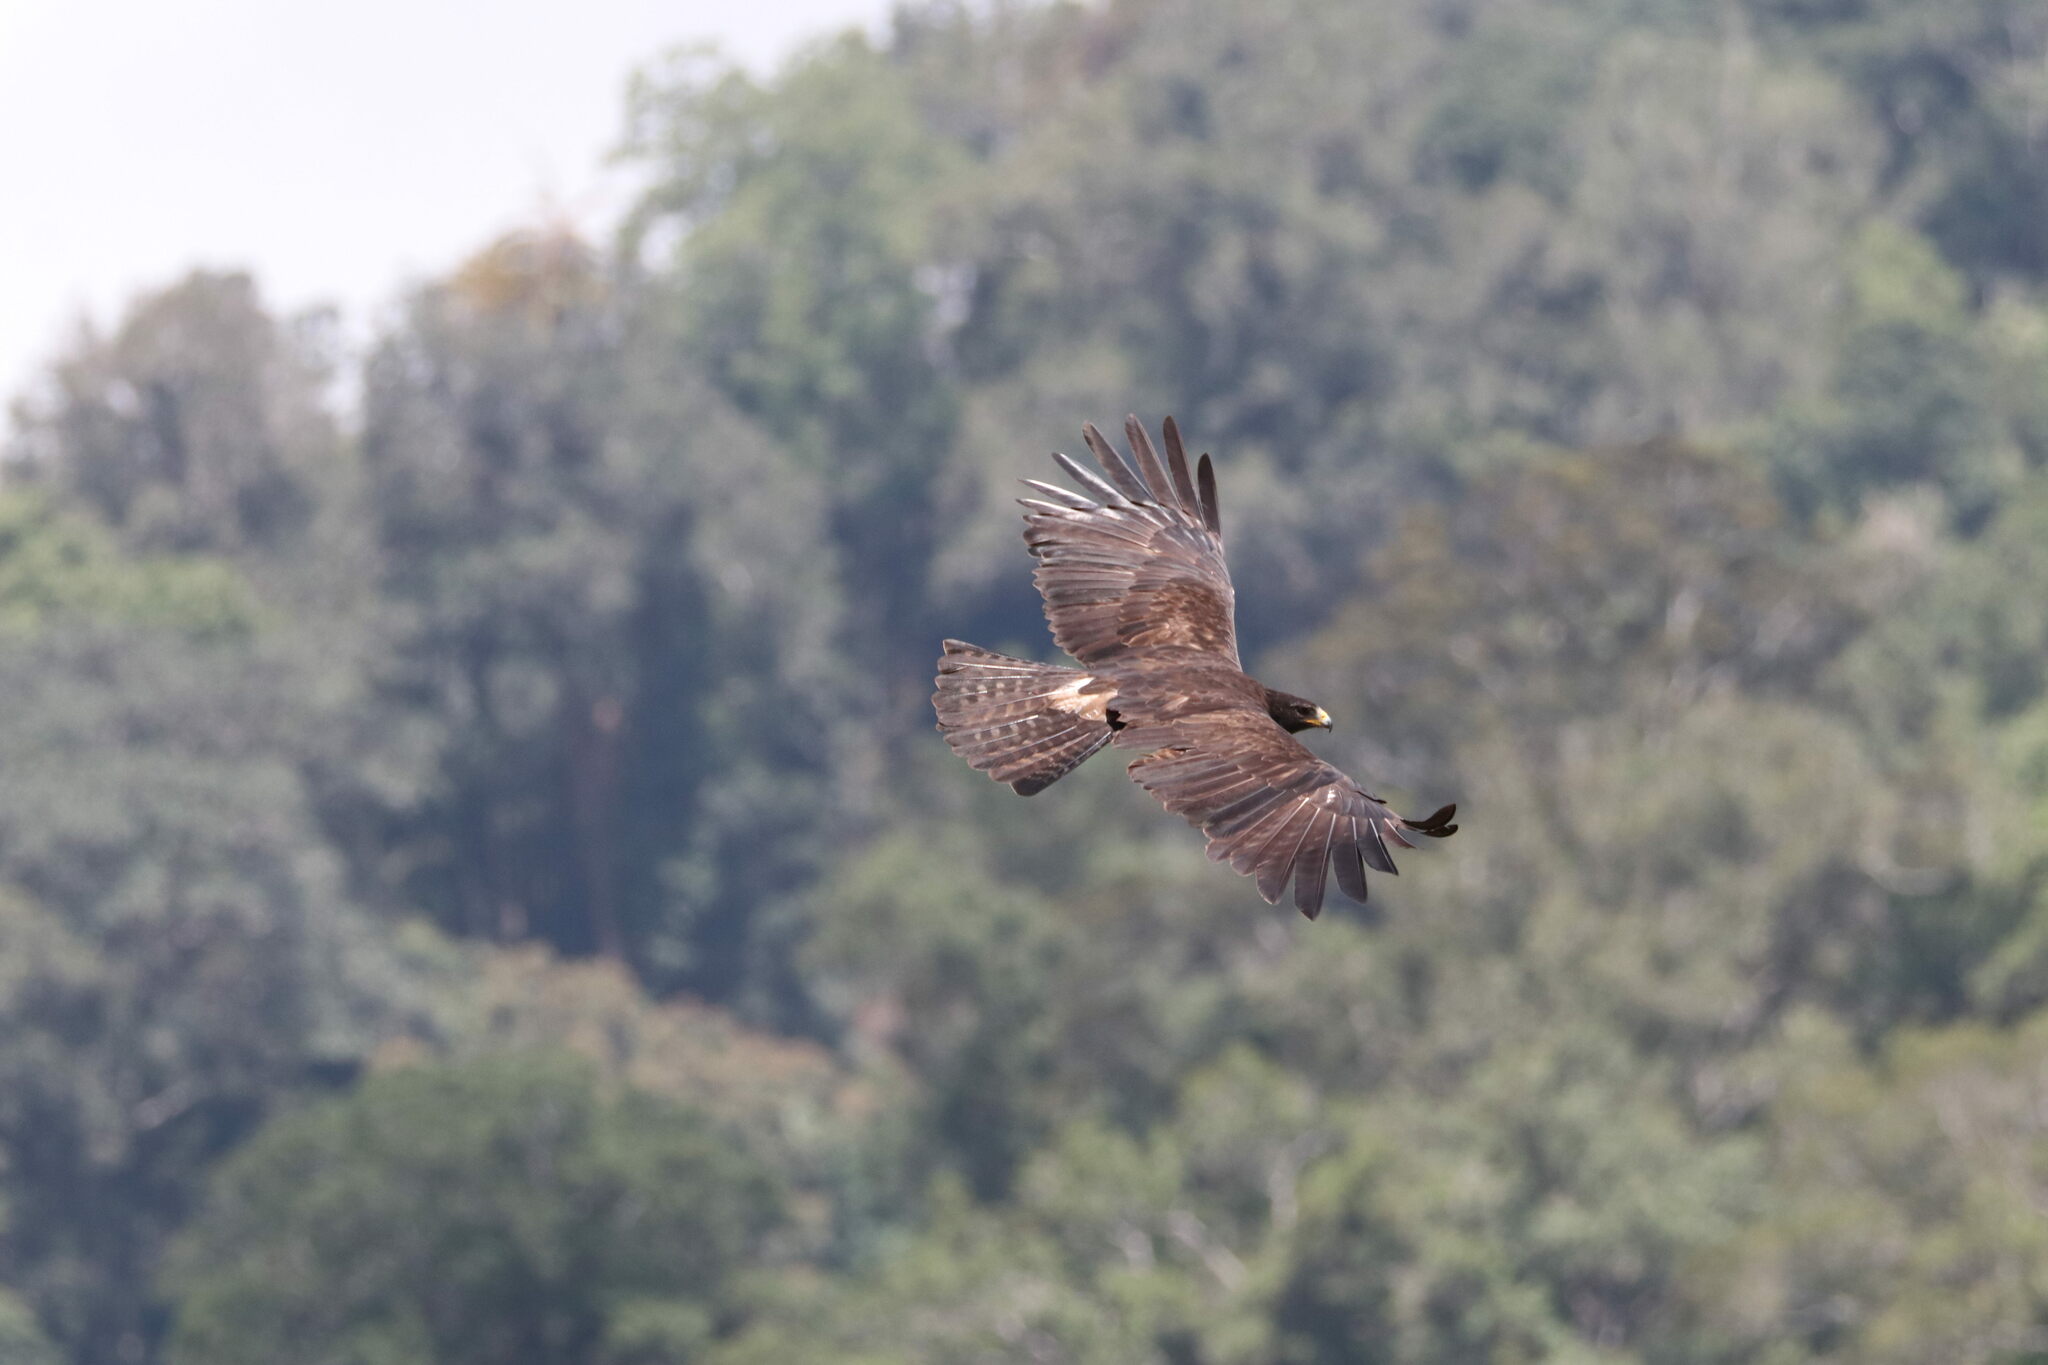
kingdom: Animalia
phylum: Chordata
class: Aves
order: Accipitriformes
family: Accipitridae
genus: Ictinaetus
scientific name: Ictinaetus malayensis
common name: Black eagle
